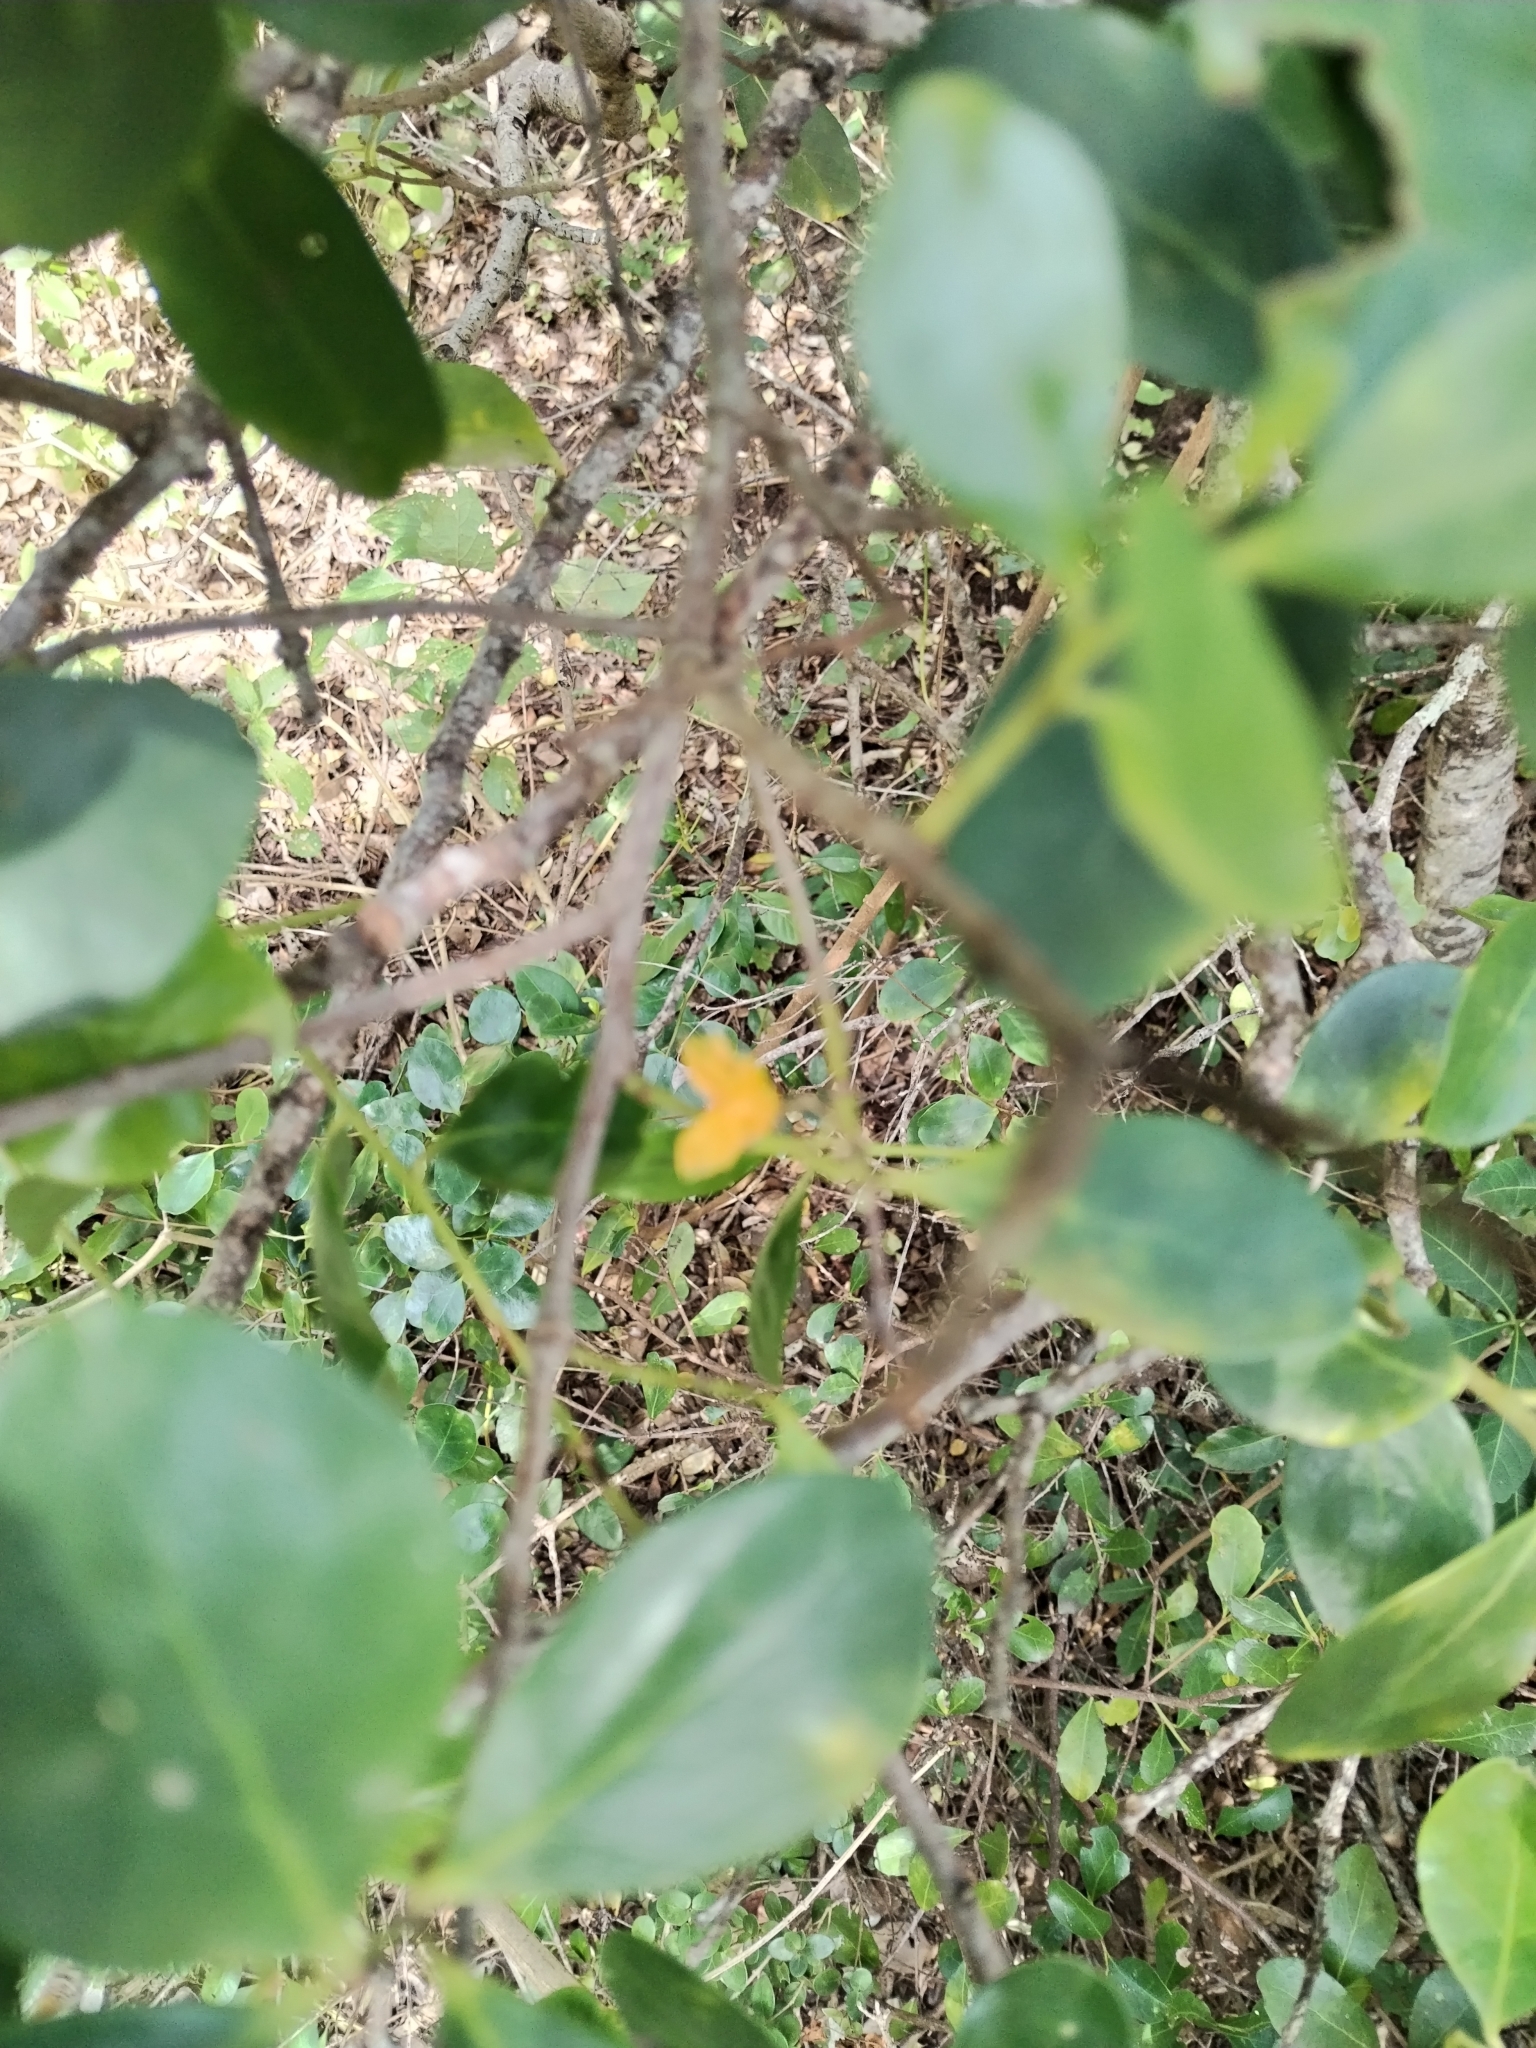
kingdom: Plantae
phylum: Tracheophyta
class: Magnoliopsida
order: Celastrales
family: Celastraceae
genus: Pterocelastrus
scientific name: Pterocelastrus tricuspidatus
